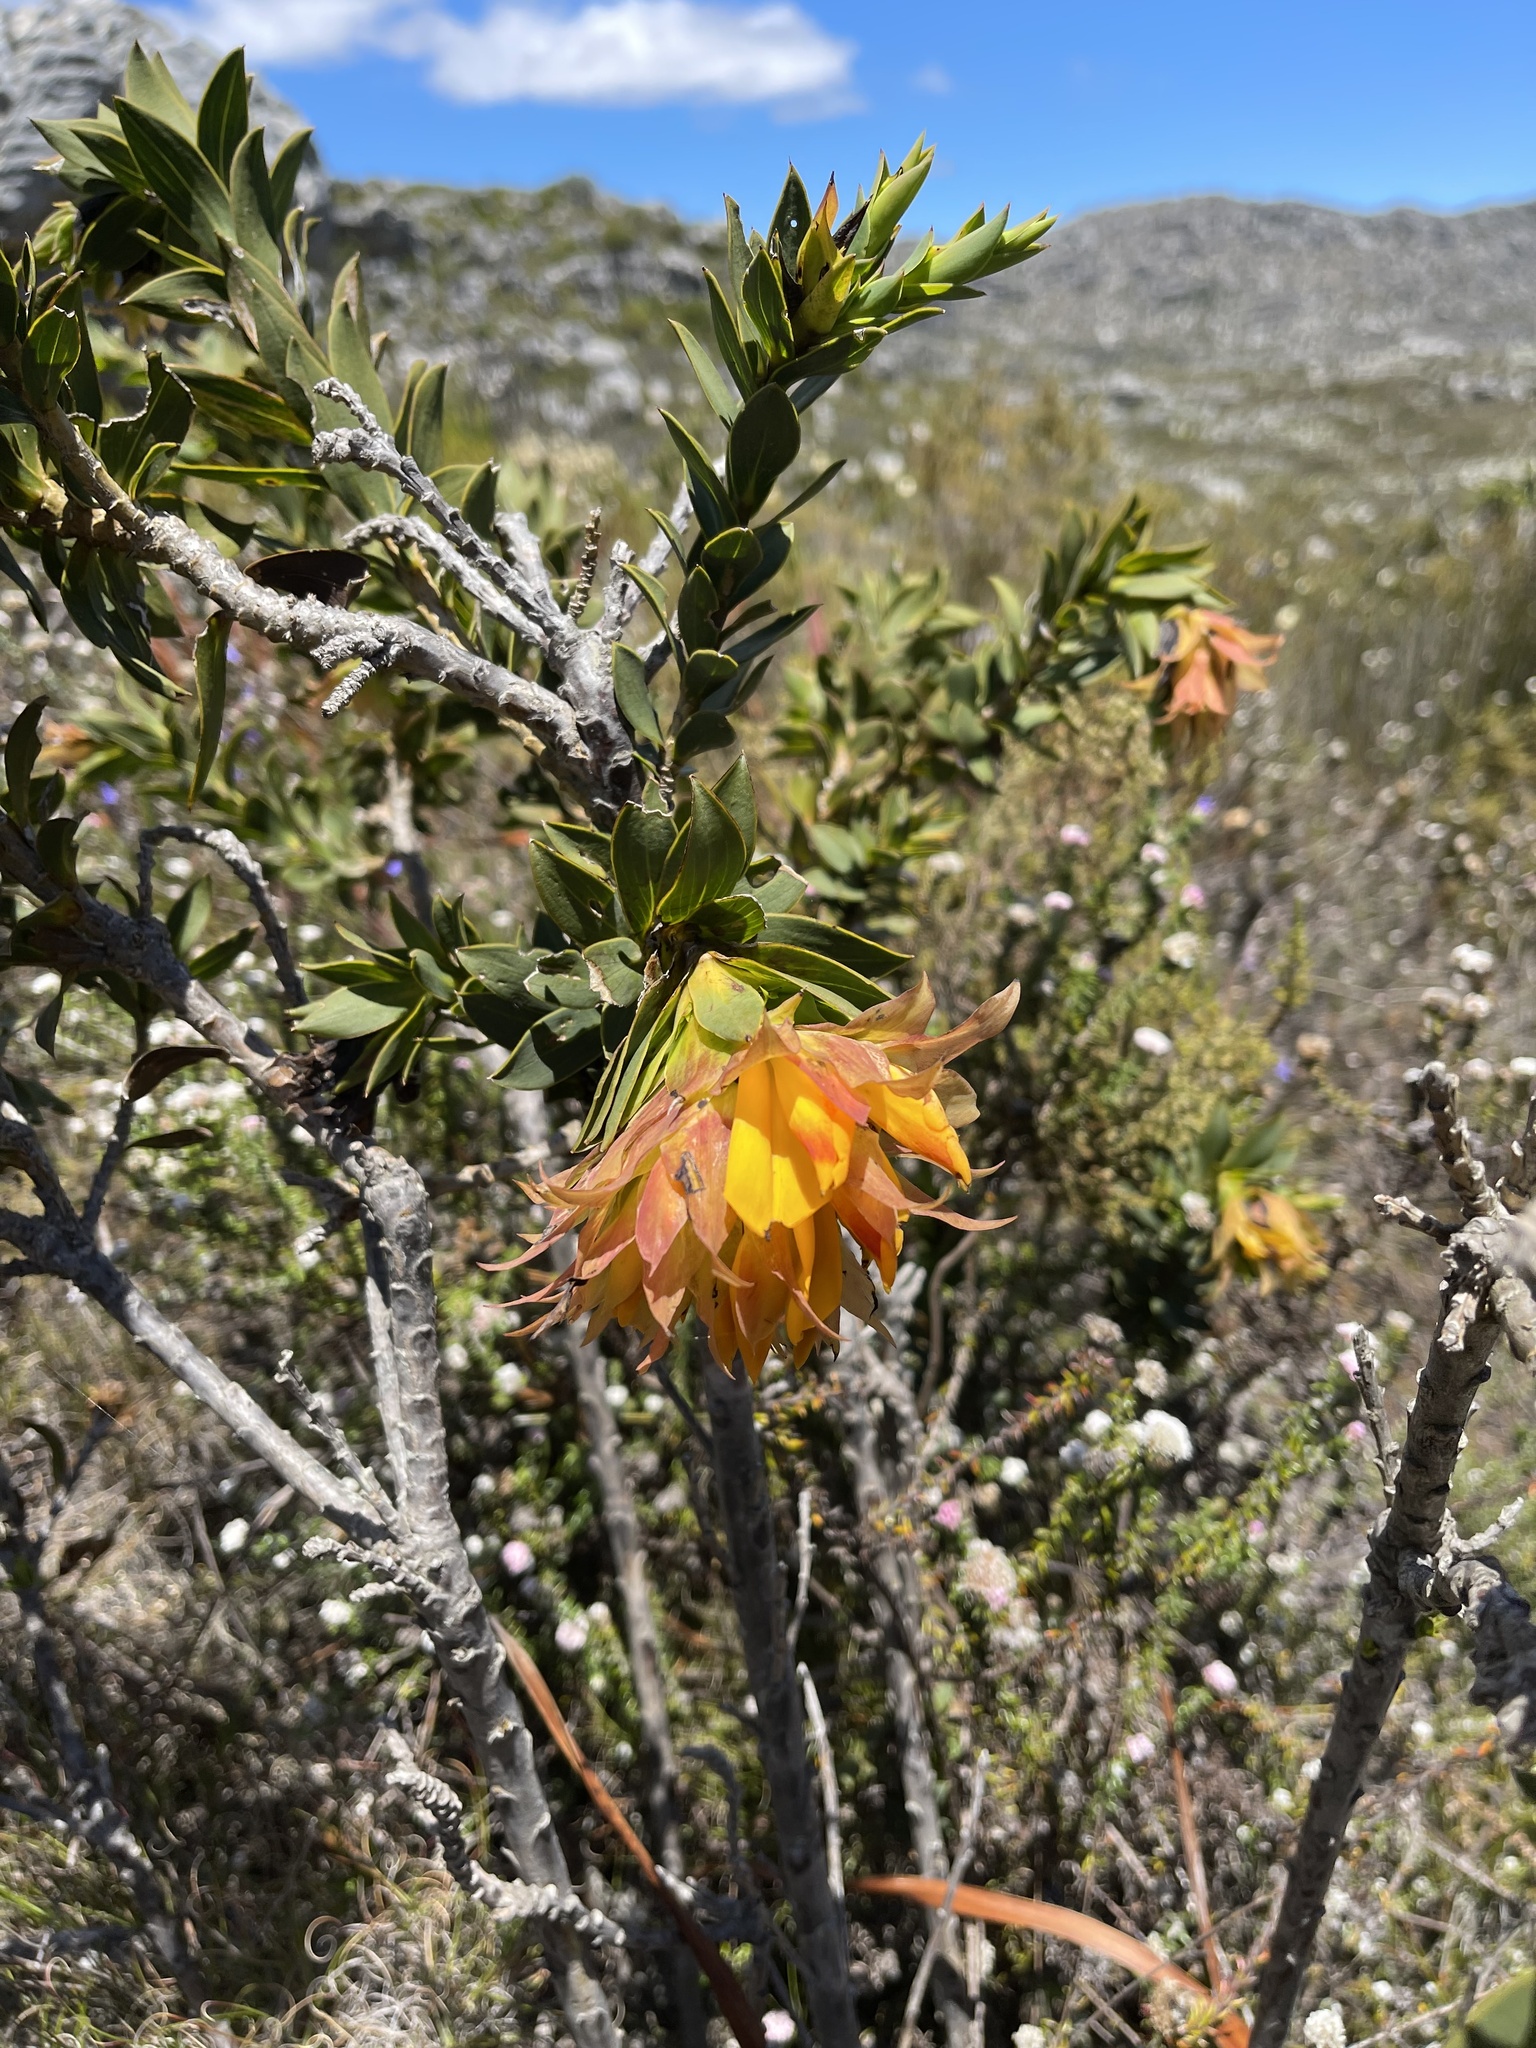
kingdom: Plantae
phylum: Tracheophyta
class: Magnoliopsida
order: Fabales
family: Fabaceae
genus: Liparia
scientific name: Liparia splendens
